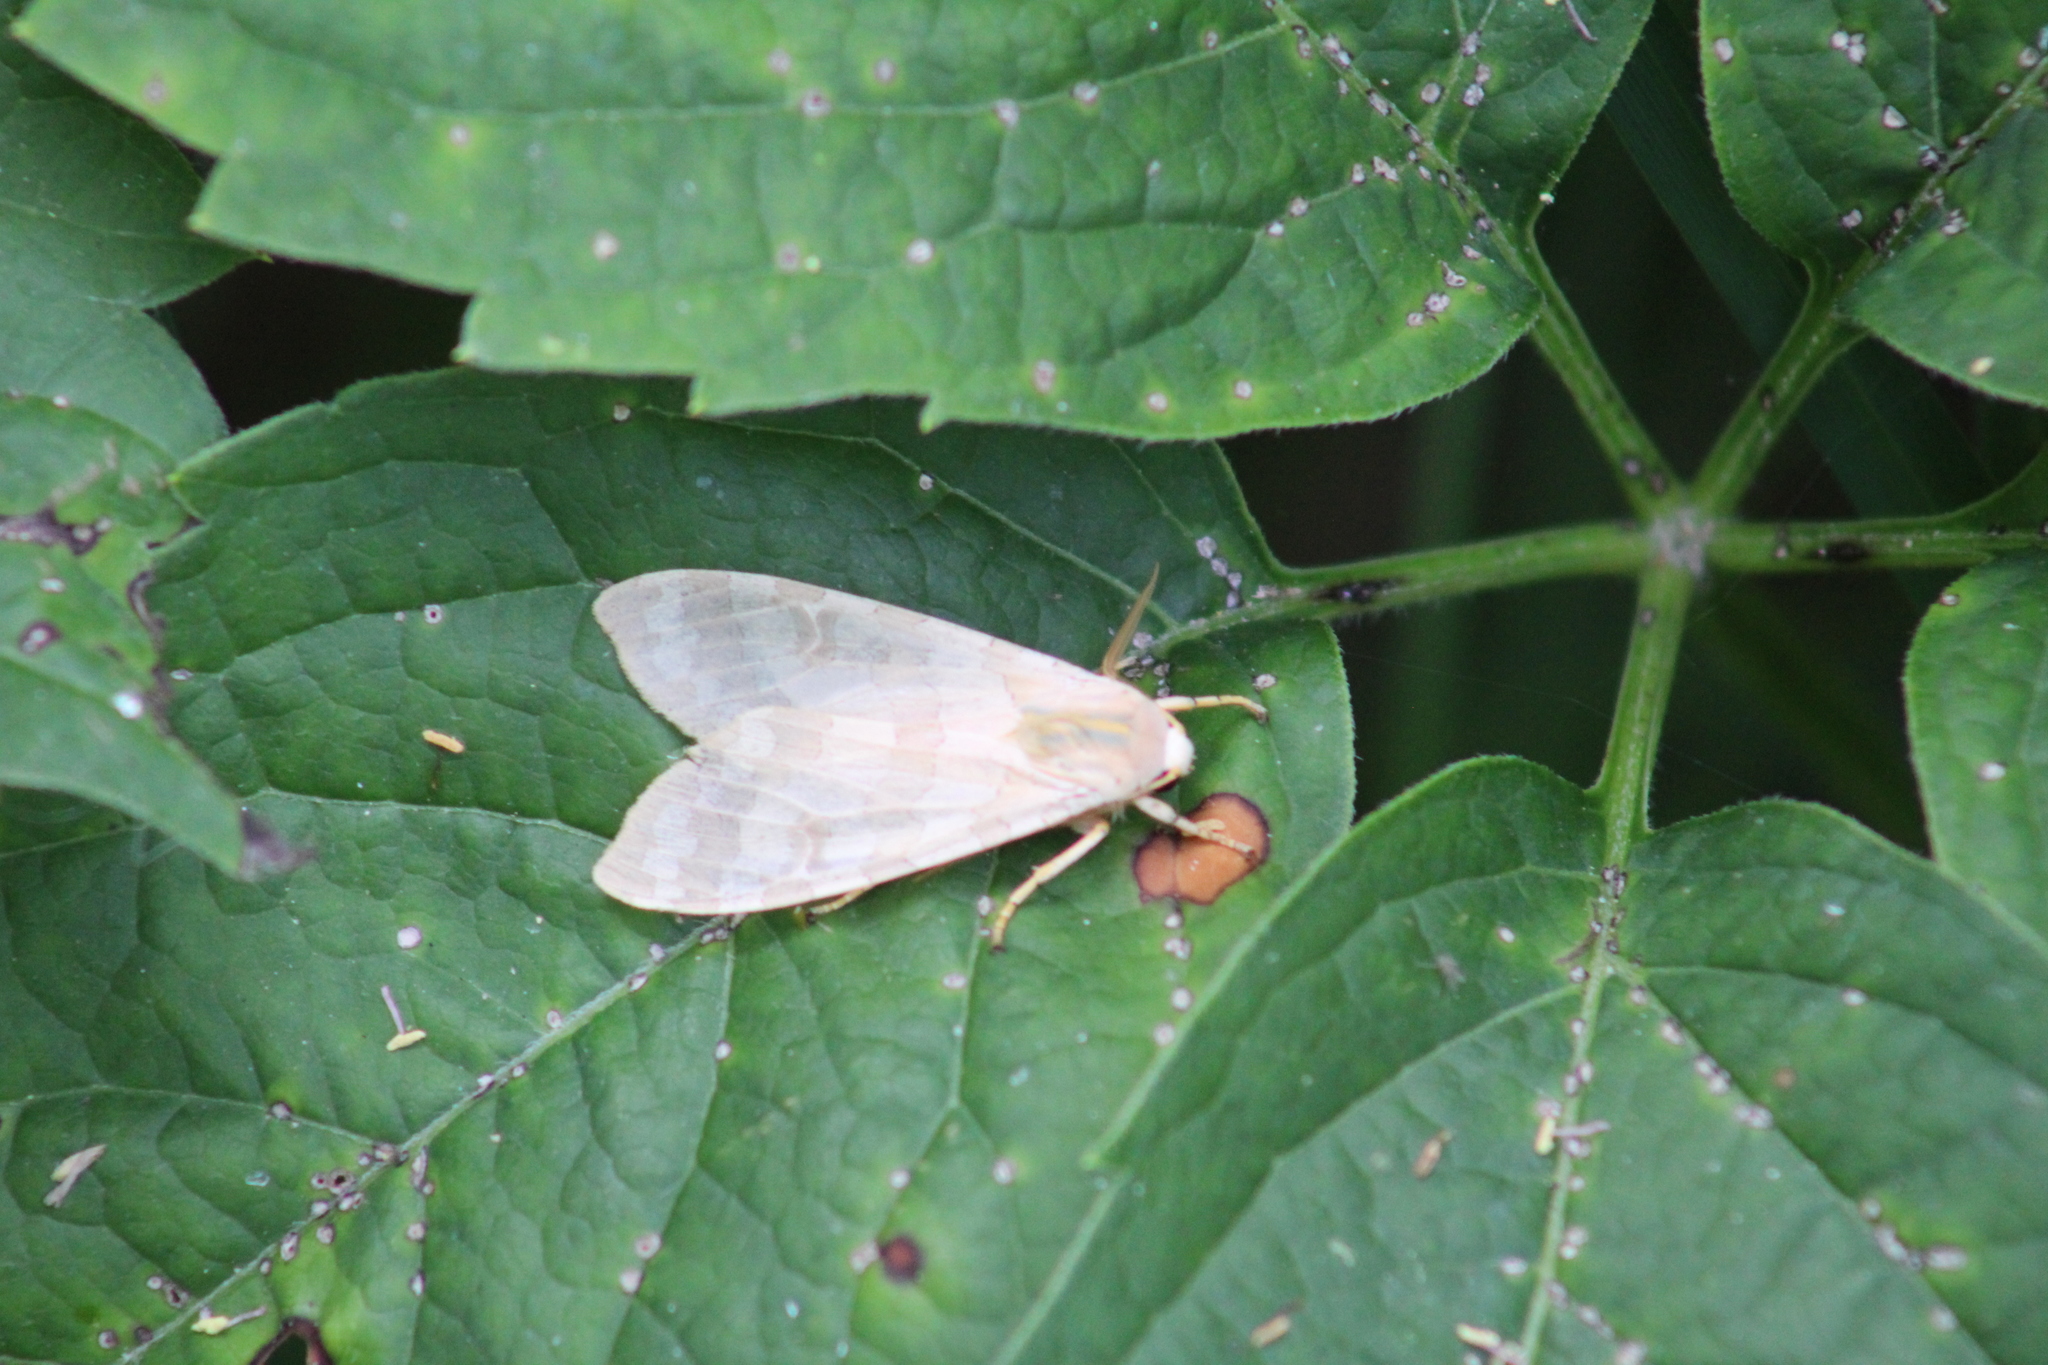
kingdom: Animalia
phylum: Arthropoda
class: Insecta
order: Lepidoptera
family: Erebidae
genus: Halysidota
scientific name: Halysidota tessellaris
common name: Banded tussock moth
